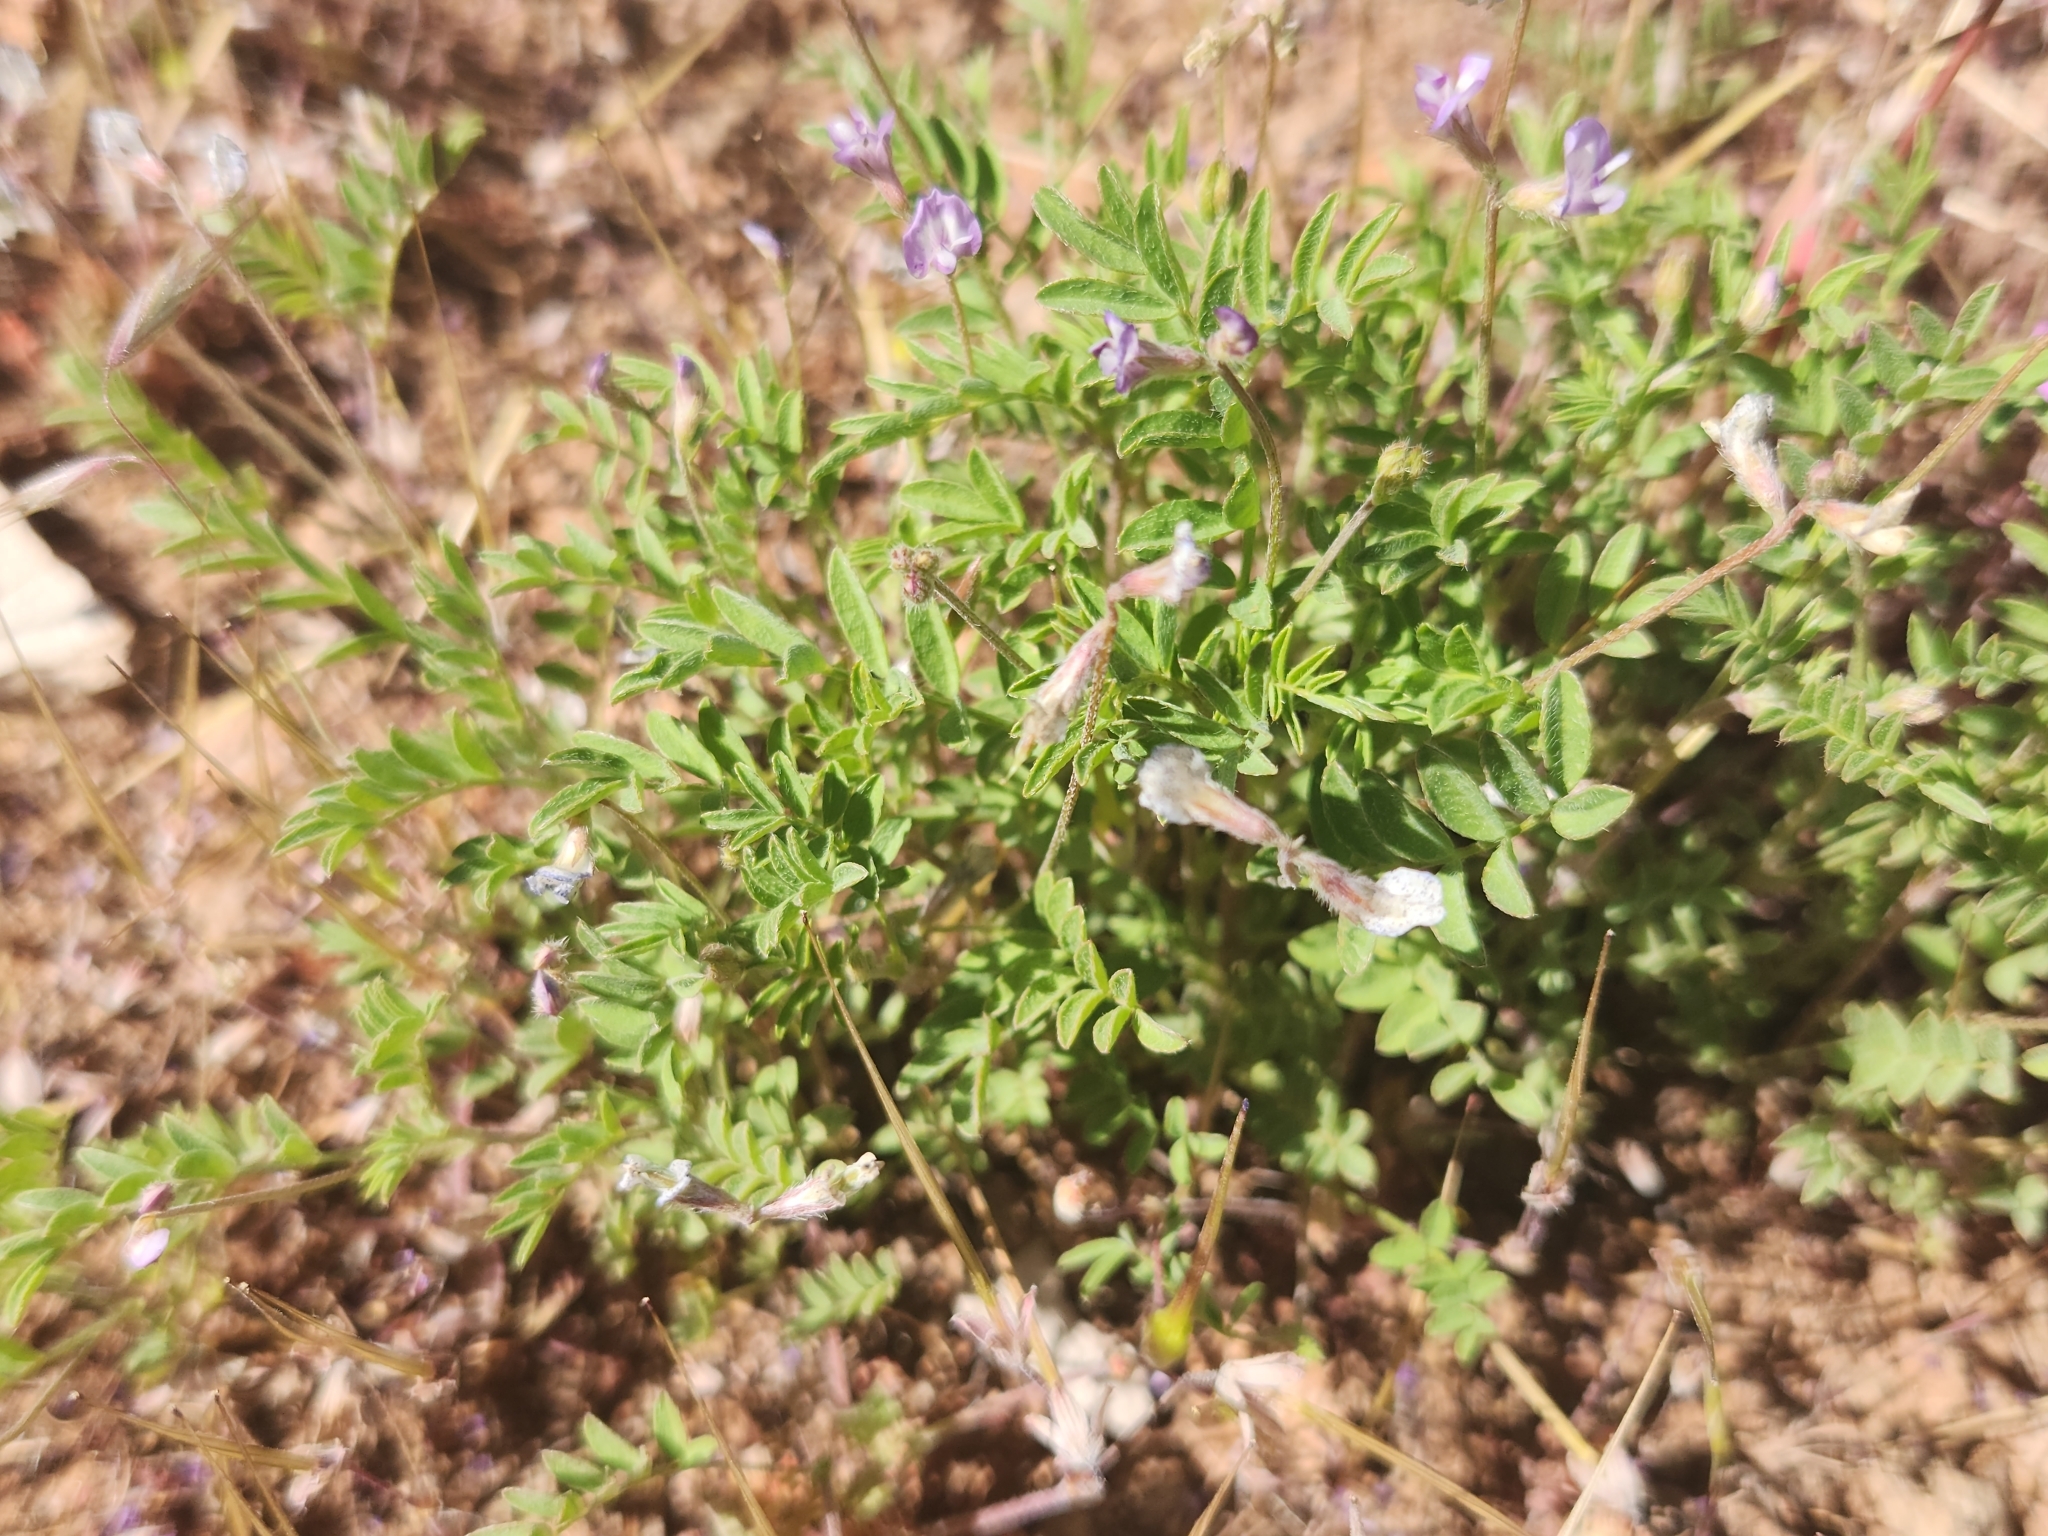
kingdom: Plantae
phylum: Tracheophyta
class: Magnoliopsida
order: Fabales
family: Fabaceae
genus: Astragalus
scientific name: Astragalus nuttallianus
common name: Smallflowered milkvetch
